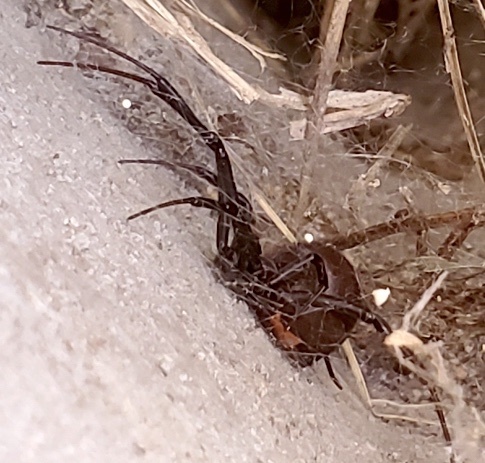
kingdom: Animalia
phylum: Arthropoda
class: Arachnida
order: Araneae
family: Theridiidae
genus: Latrodectus
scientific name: Latrodectus hesperus
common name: Western black widow
